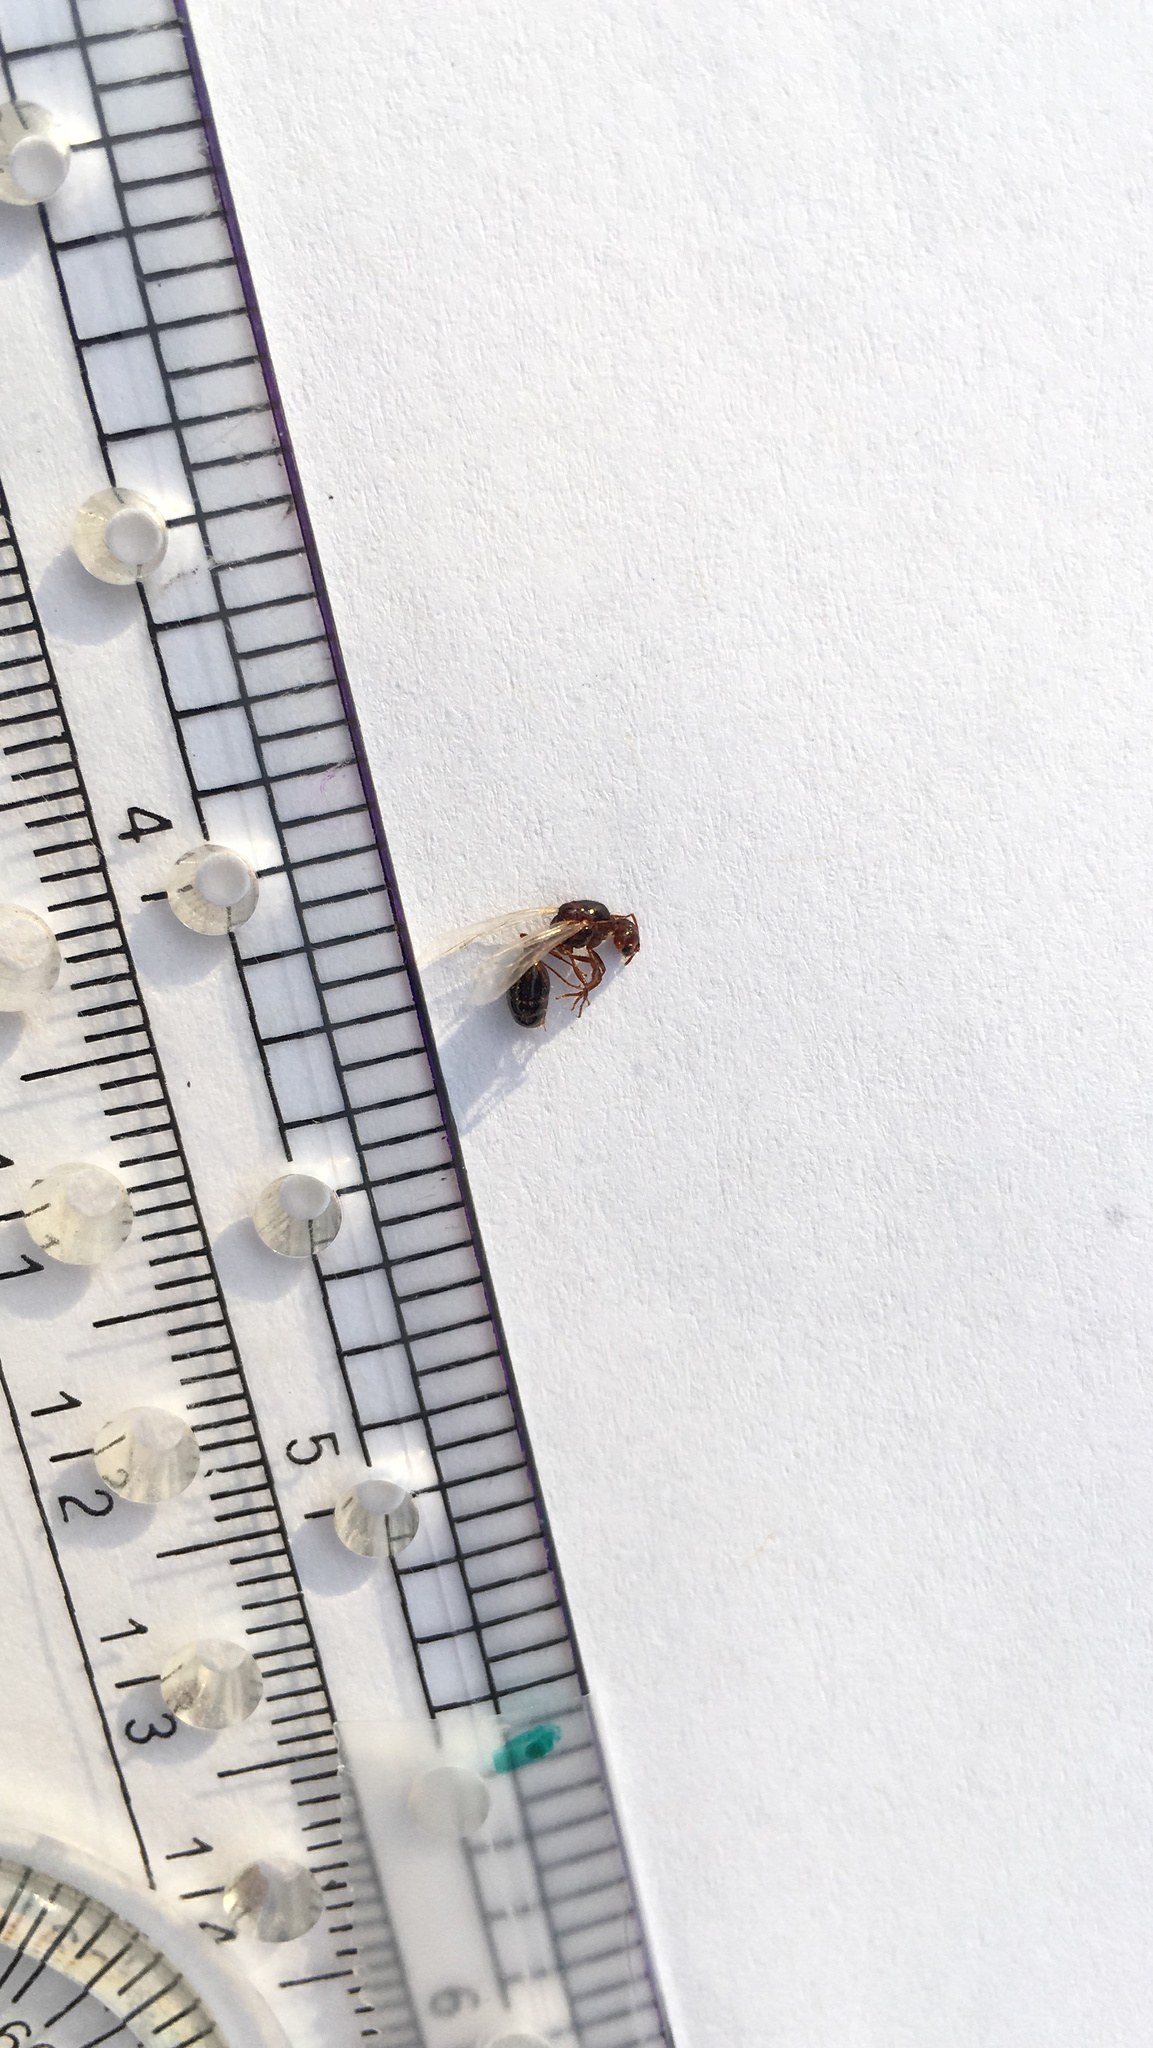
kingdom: Animalia
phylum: Arthropoda
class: Insecta
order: Hymenoptera
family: Formicidae
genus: Solenopsis
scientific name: Solenopsis invicta
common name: Red imported fire ant
